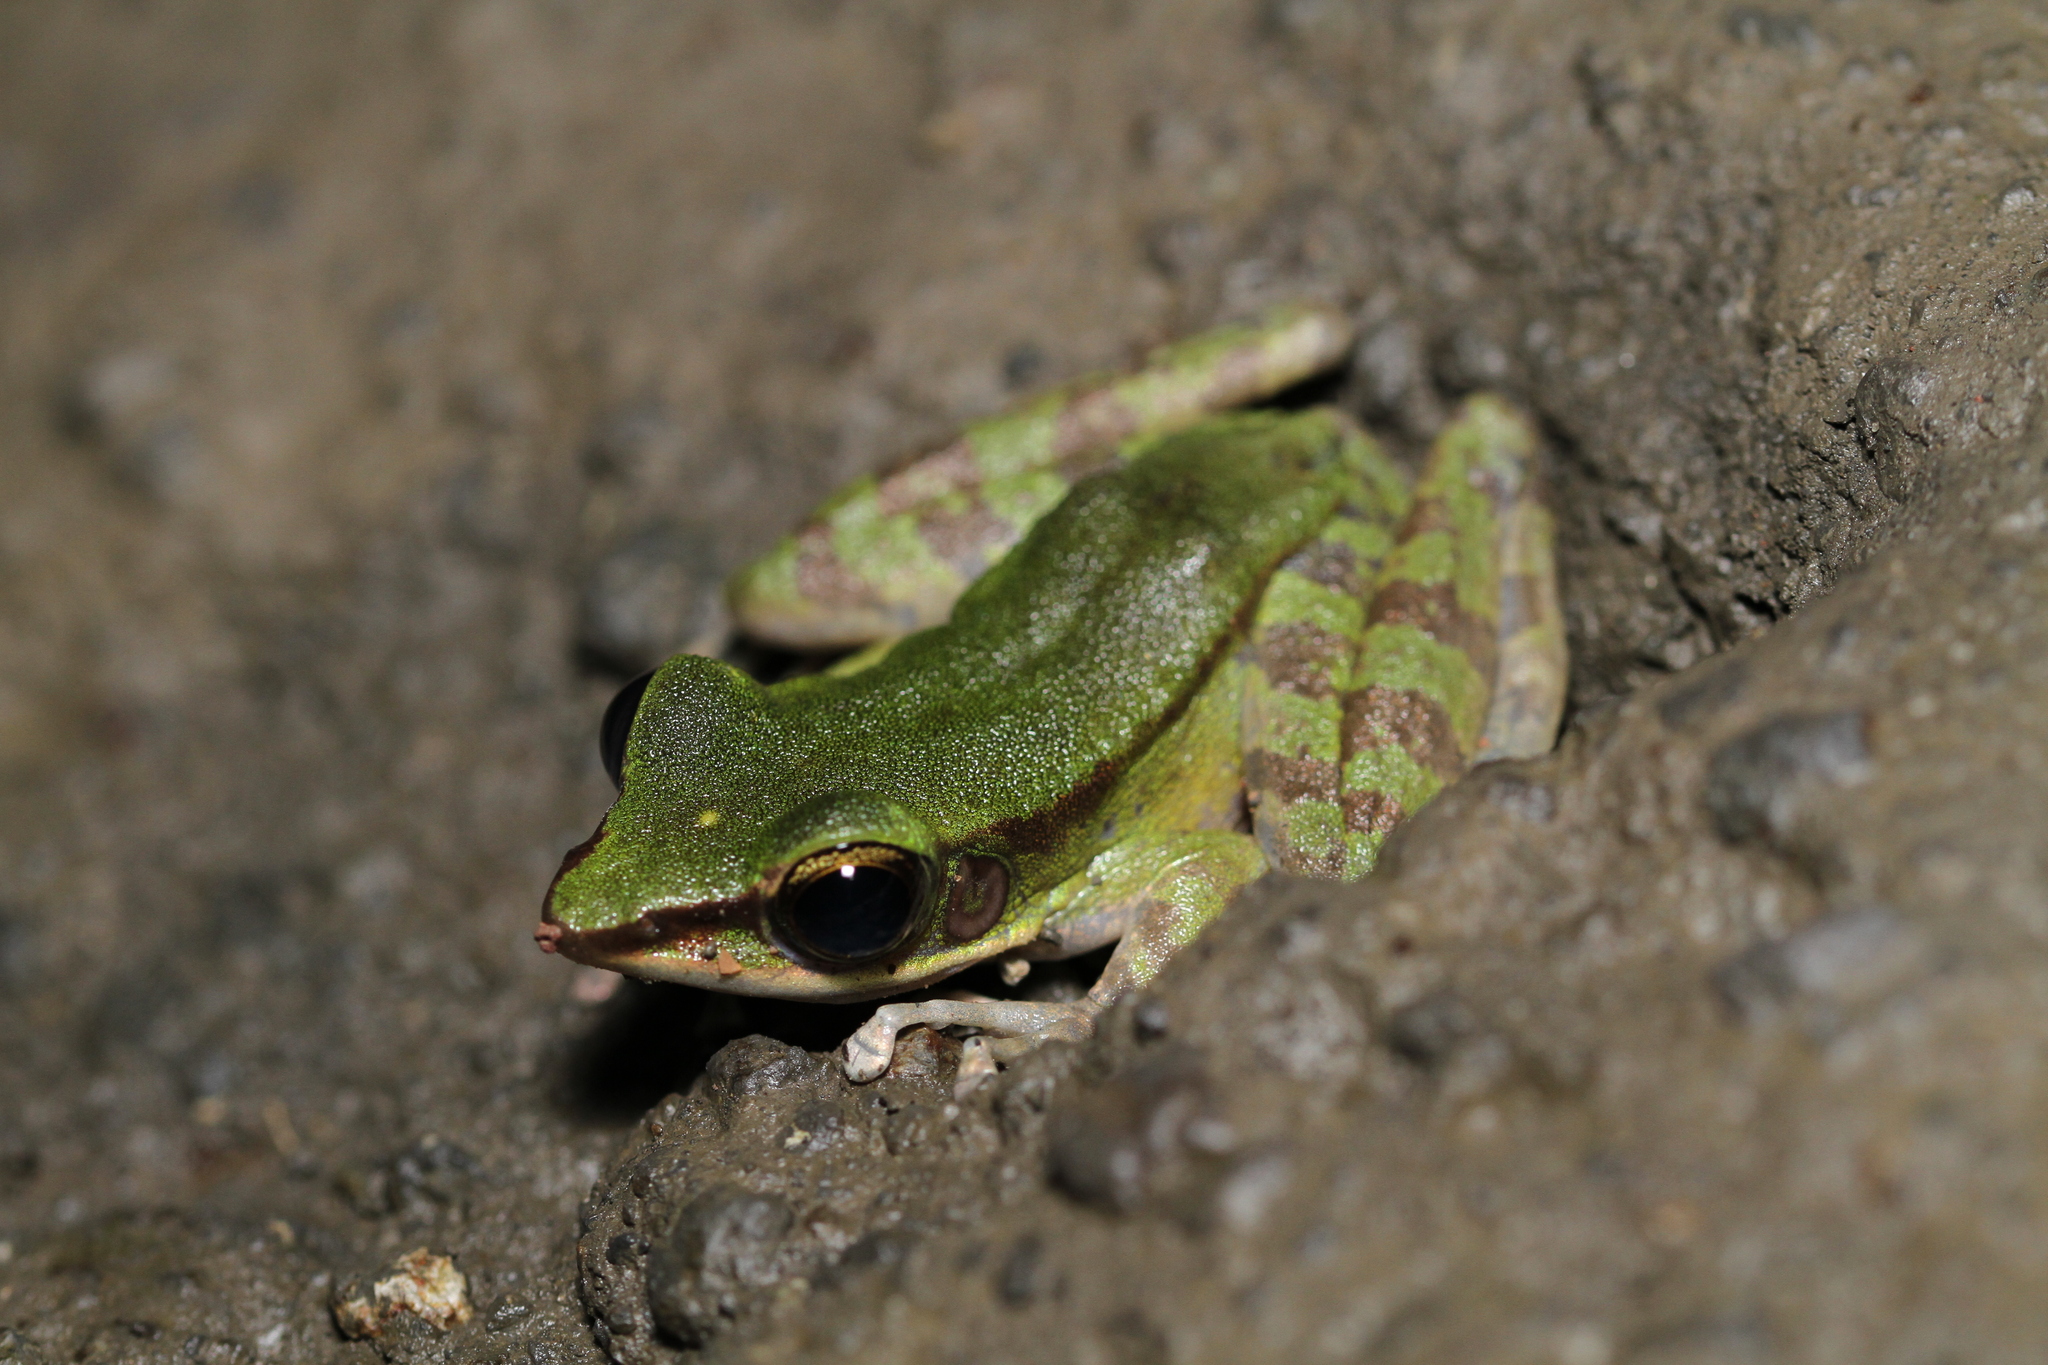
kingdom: Animalia
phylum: Chordata
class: Amphibia
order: Anura
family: Ranidae
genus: Odorrana
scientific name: Odorrana hosii
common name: Green tree frog
